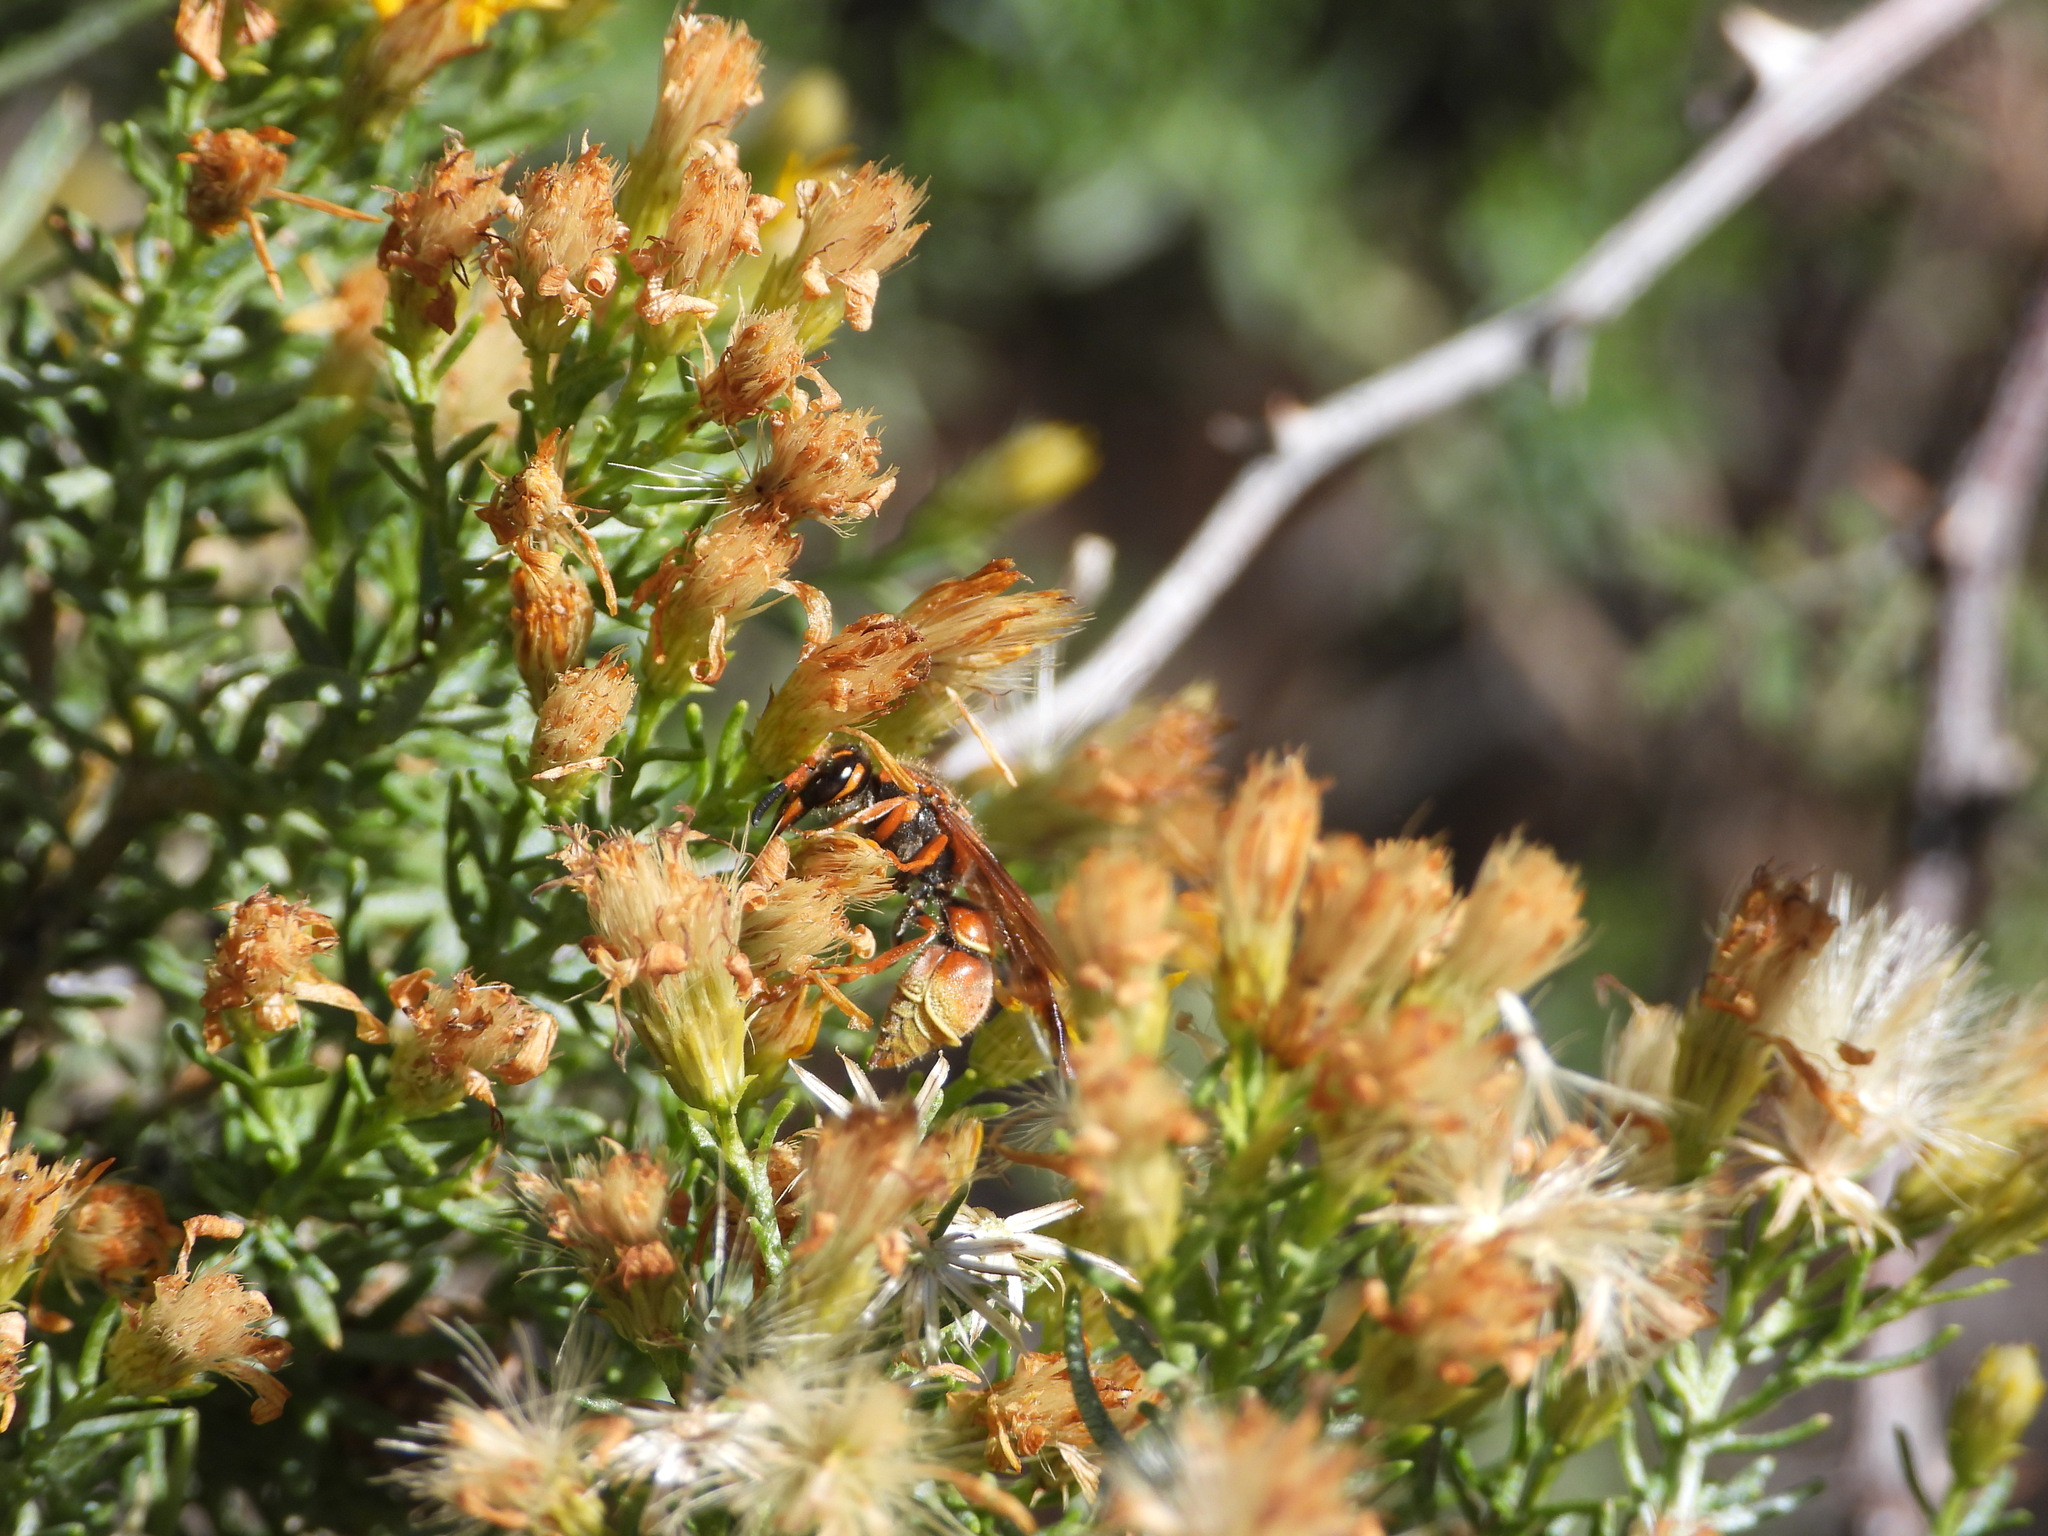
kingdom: Animalia
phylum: Arthropoda
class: Insecta
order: Hymenoptera
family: Vespidae
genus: Ancistrocerus
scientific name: Ancistrocerus
